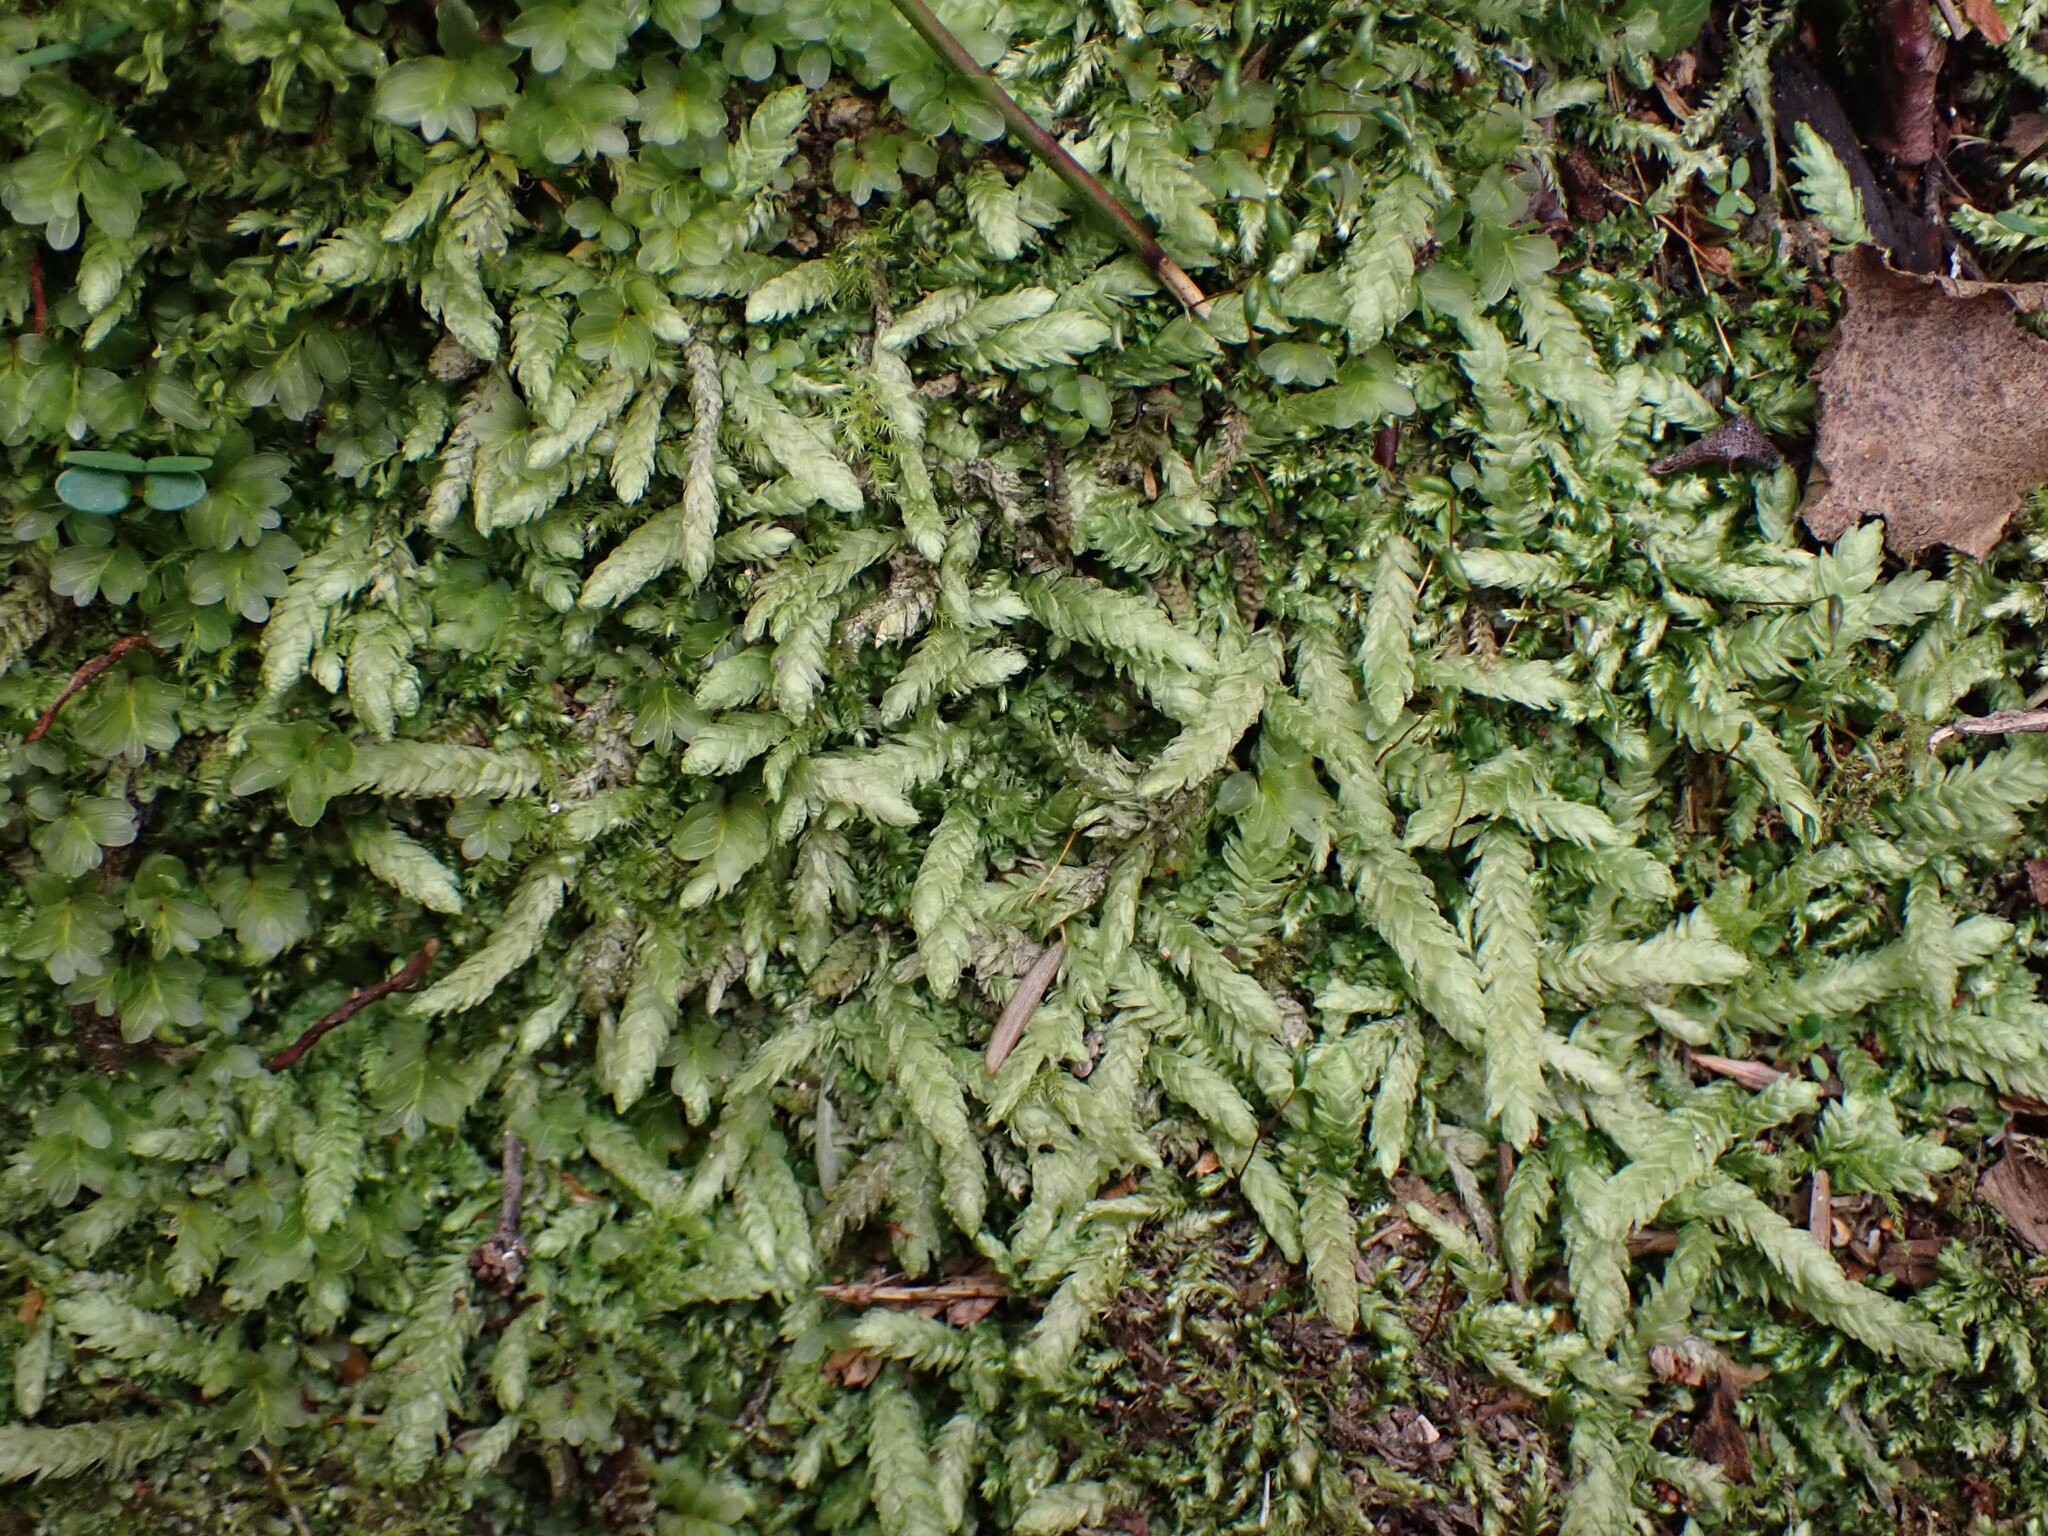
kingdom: Plantae
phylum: Bryophyta
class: Bryopsida
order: Hypnales
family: Plagiotheciaceae
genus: Plagiothecium
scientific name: Plagiothecium undulatum
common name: Waved silk-moss
